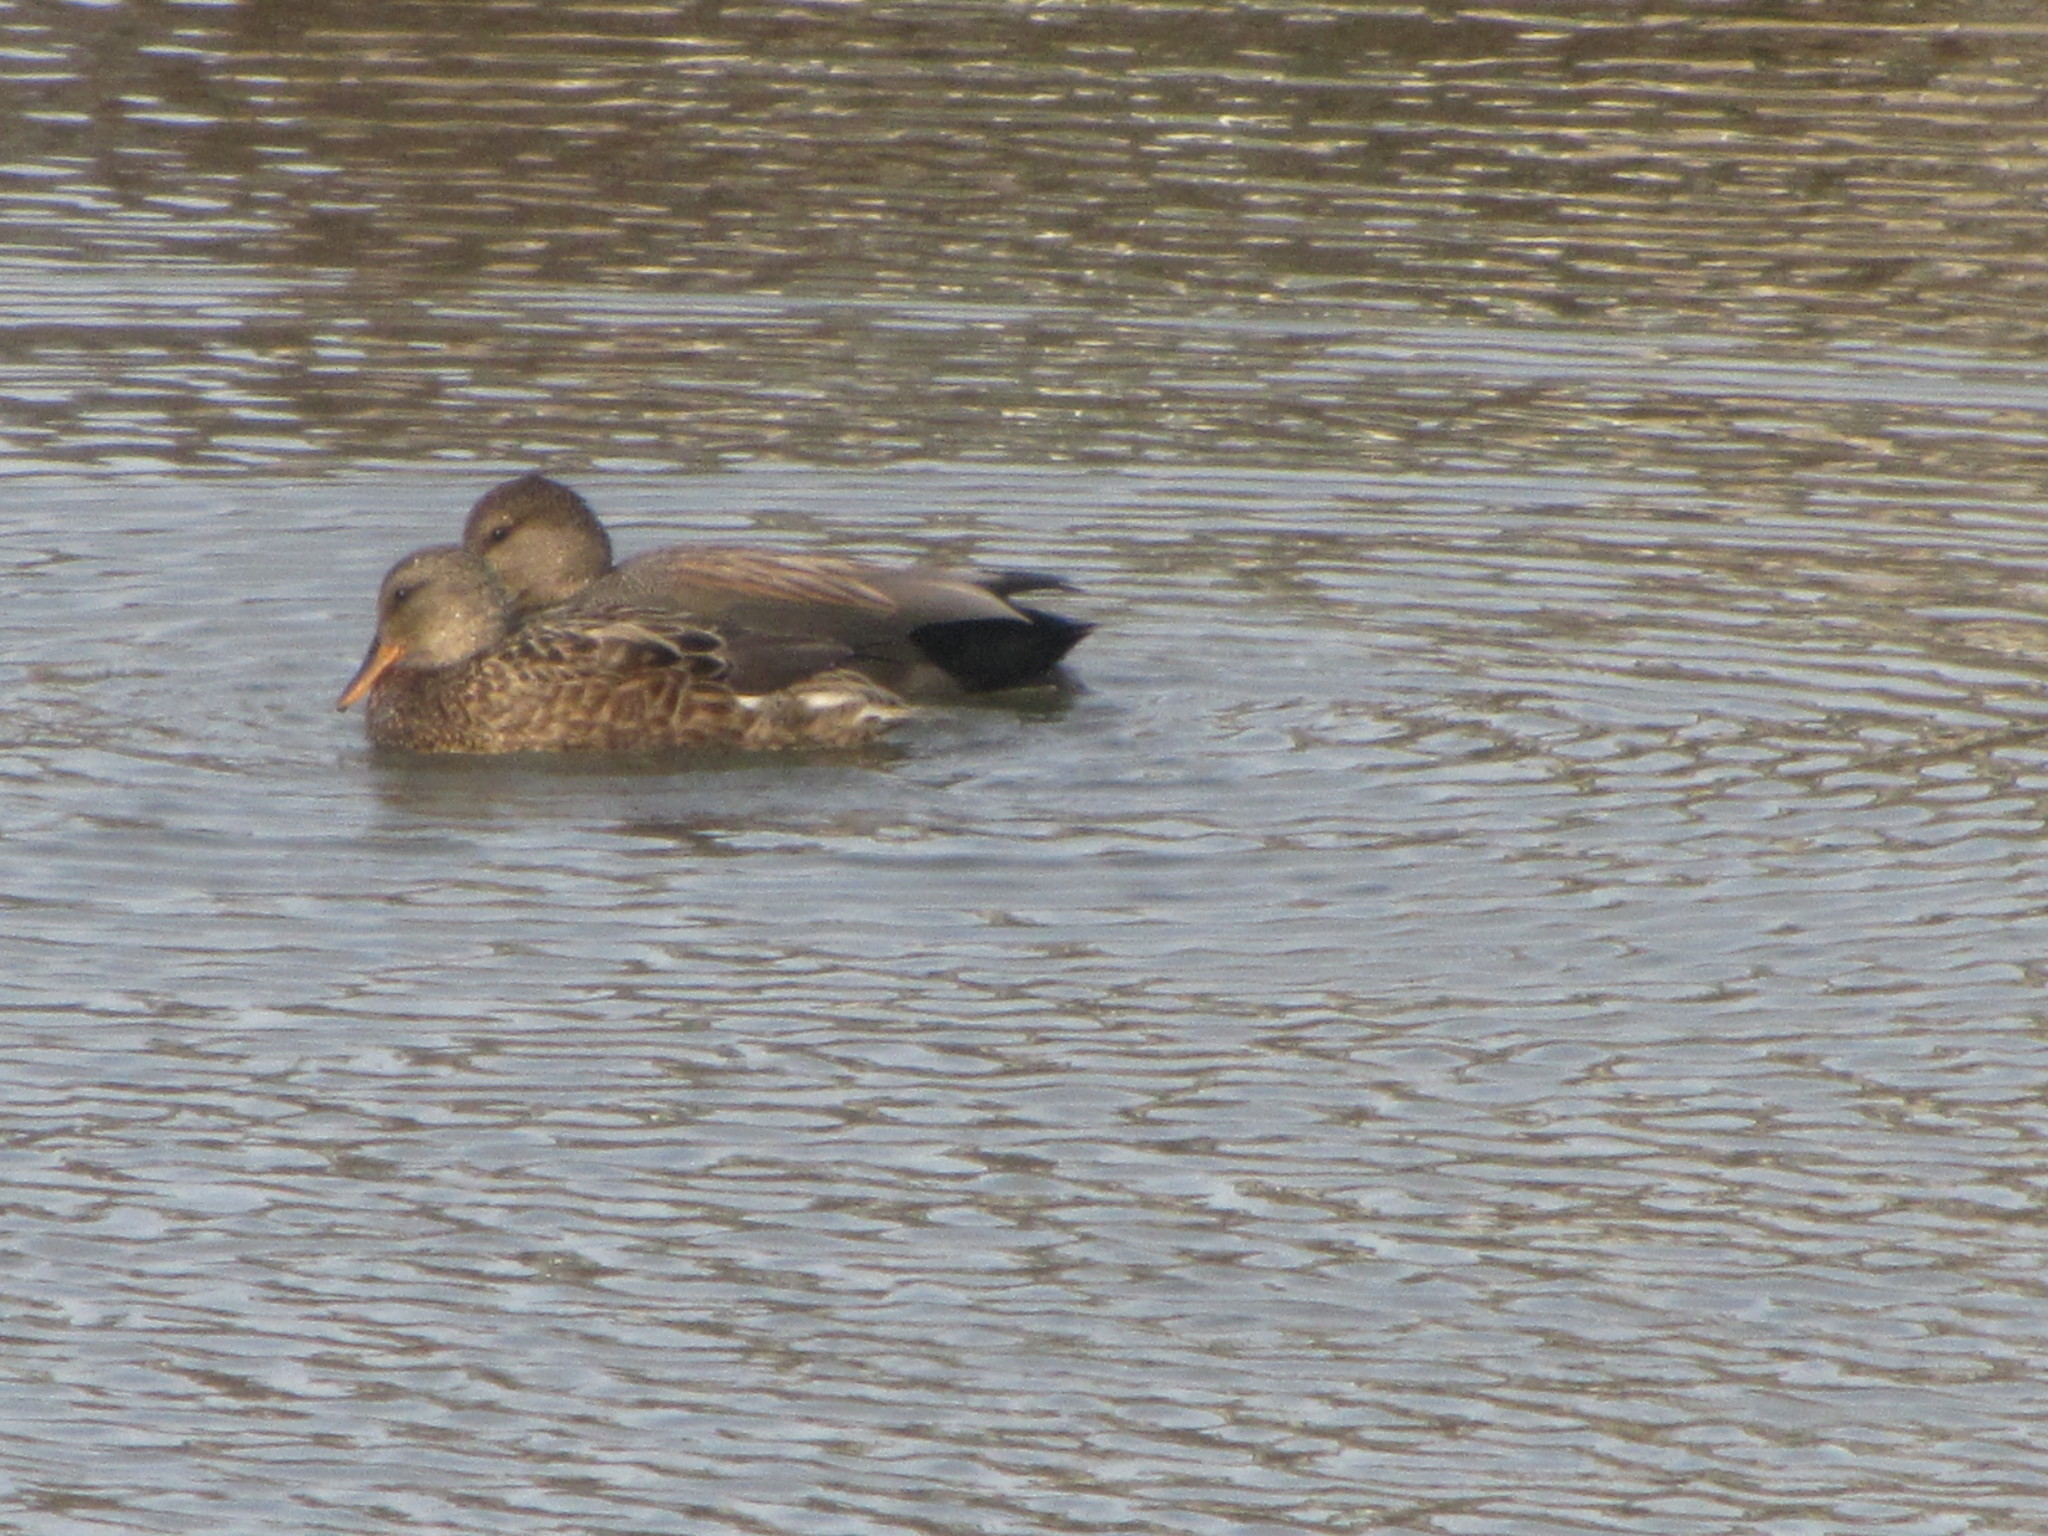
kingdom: Animalia
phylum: Chordata
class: Aves
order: Anseriformes
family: Anatidae
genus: Mareca
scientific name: Mareca strepera
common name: Gadwall
